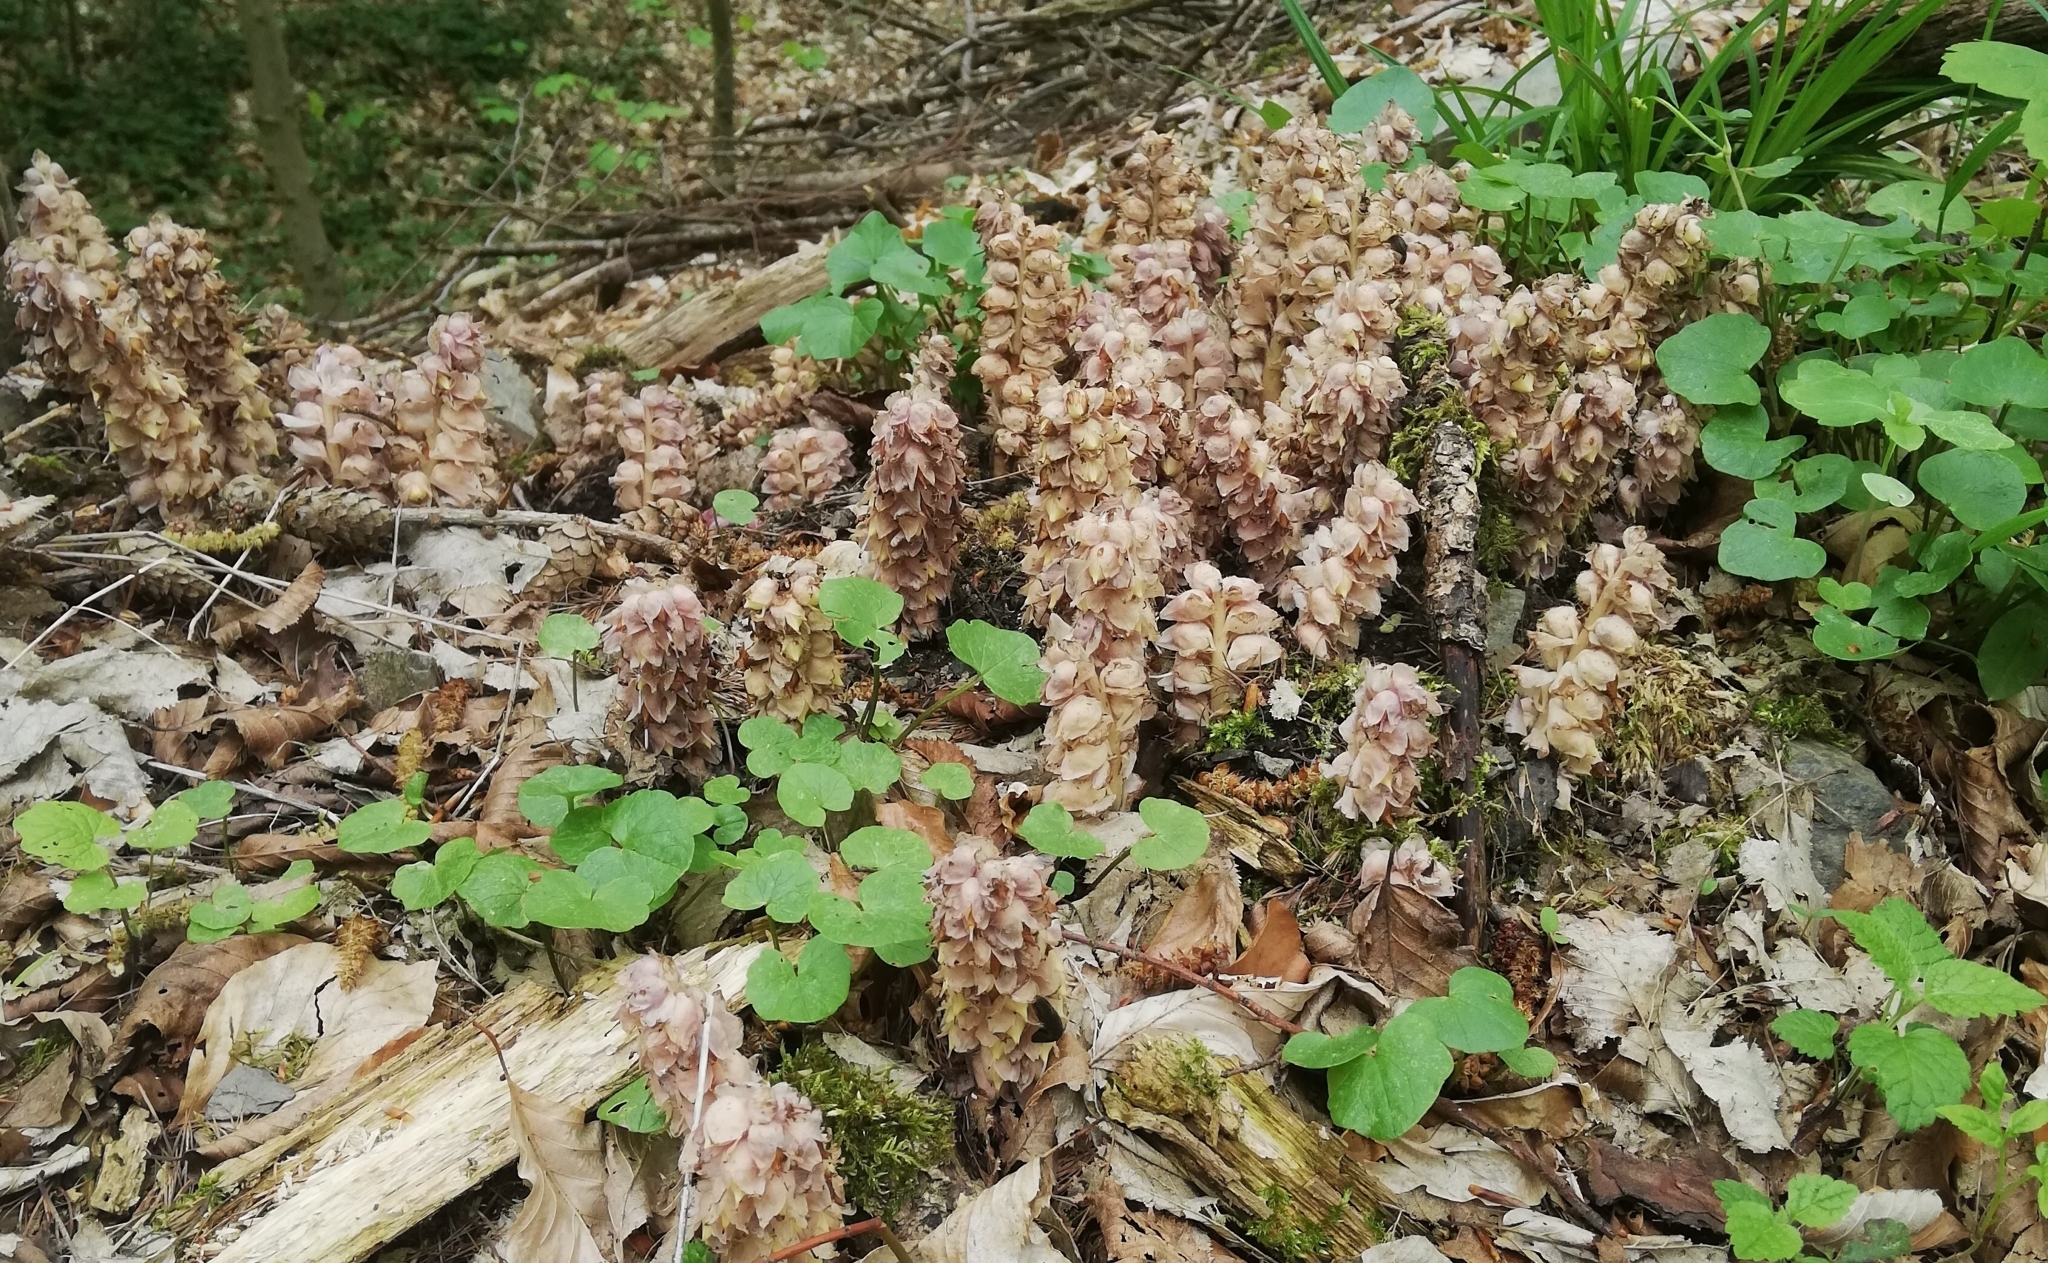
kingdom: Plantae
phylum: Tracheophyta
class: Magnoliopsida
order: Lamiales
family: Orobanchaceae
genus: Lathraea
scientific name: Lathraea squamaria
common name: Toothwort
